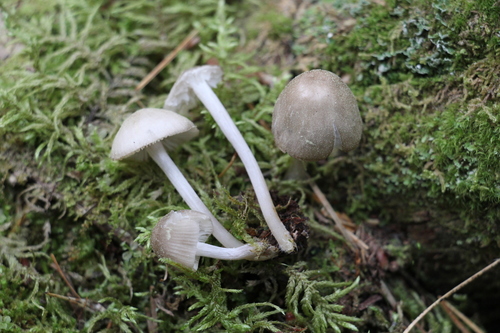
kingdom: Fungi
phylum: Basidiomycota
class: Agaricomycetes
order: Agaricales
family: Mycenaceae
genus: Mycena
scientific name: Mycena niveipes
